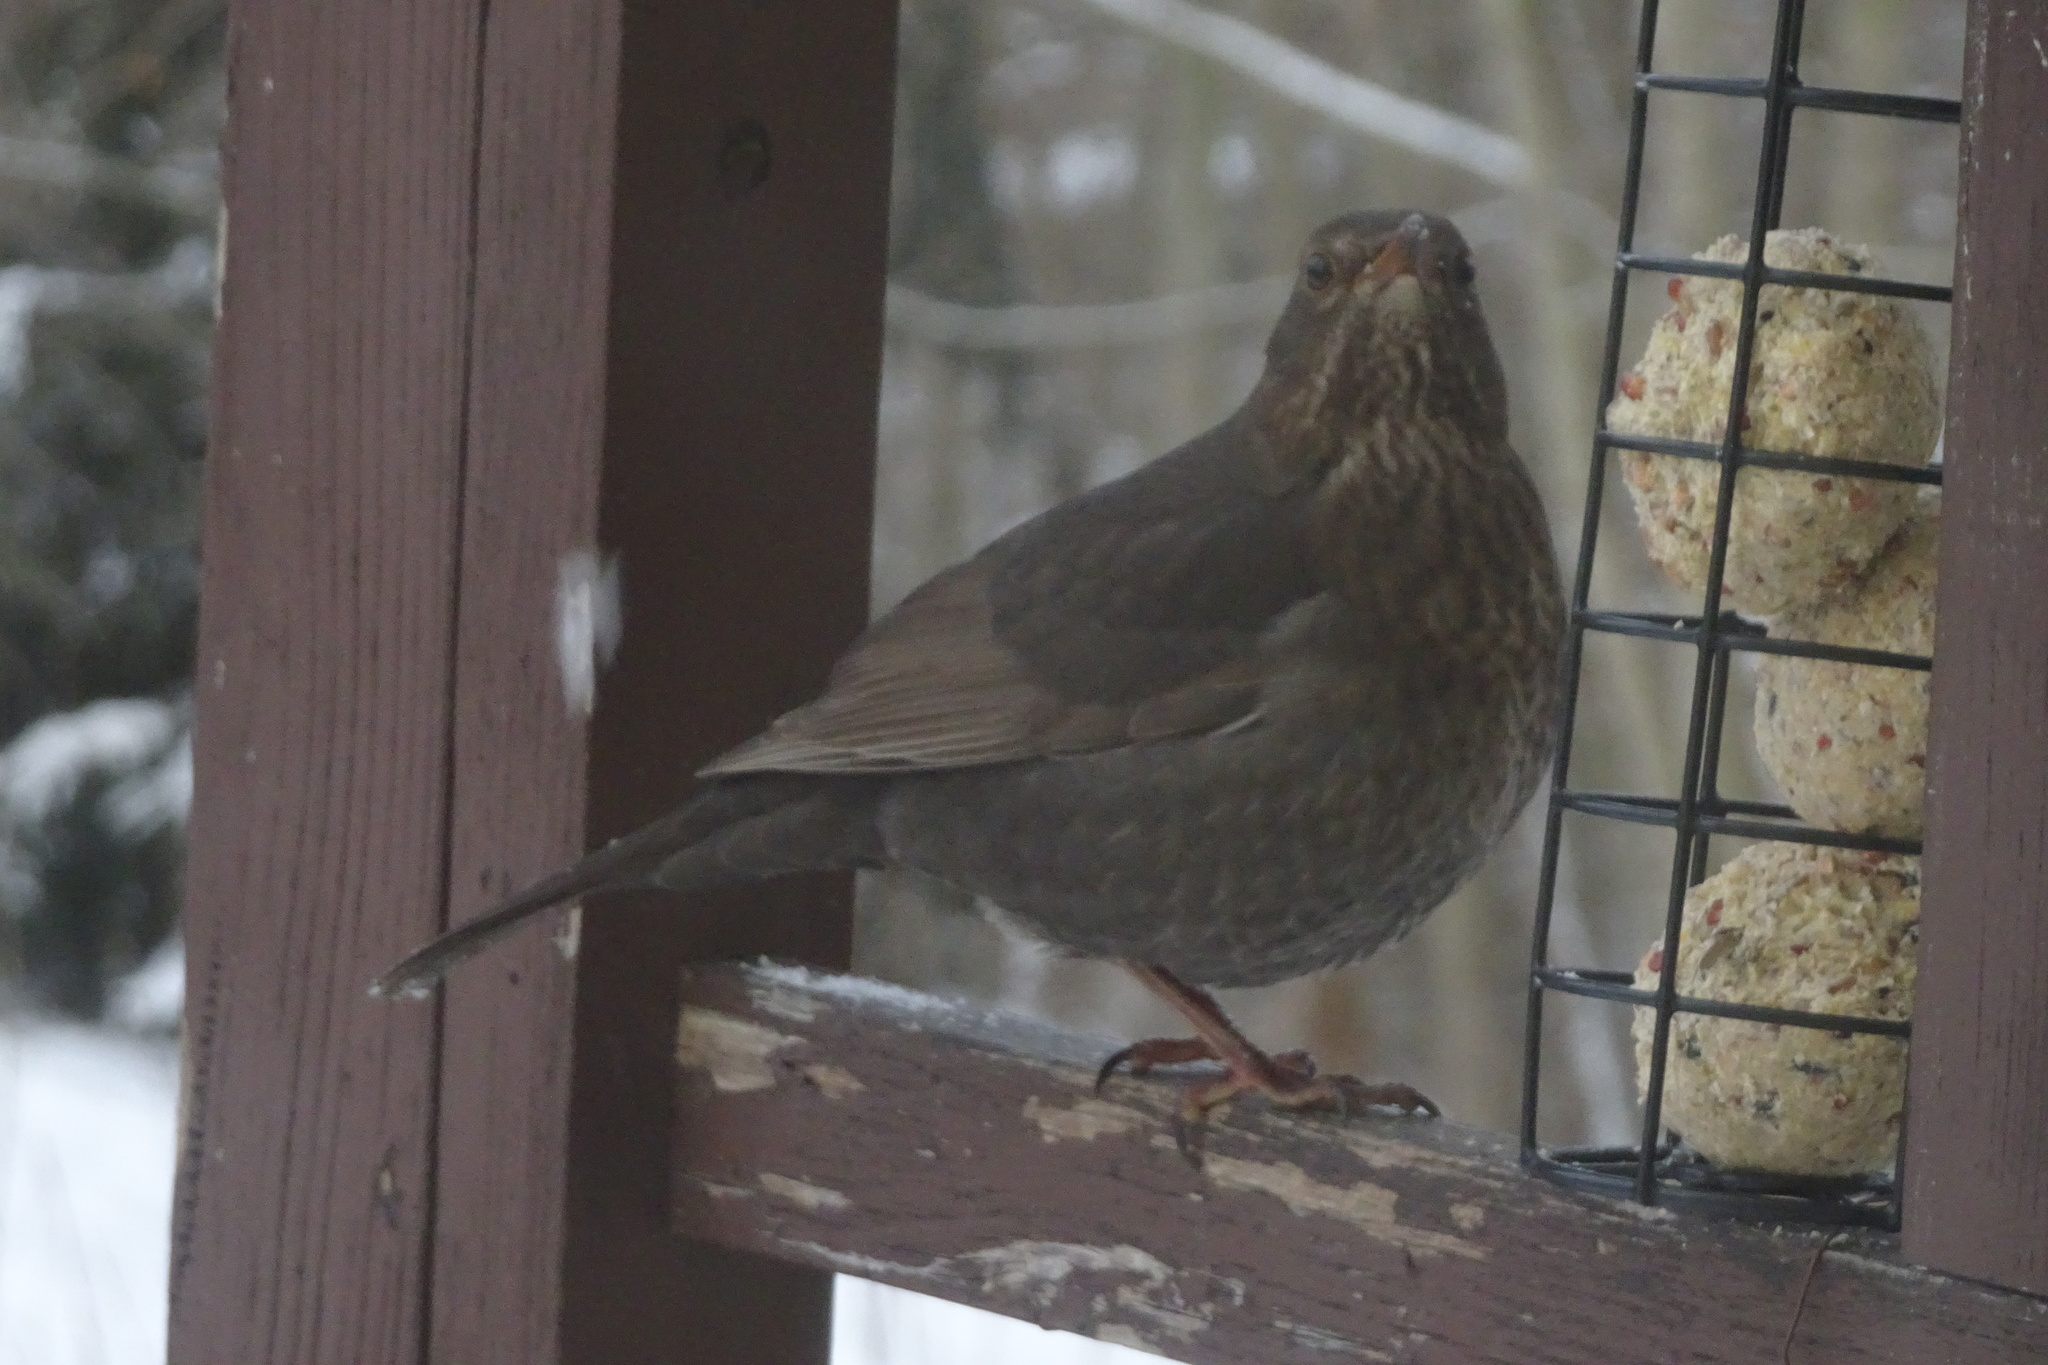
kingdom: Animalia
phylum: Chordata
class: Aves
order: Passeriformes
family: Turdidae
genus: Turdus
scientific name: Turdus merula
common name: Common blackbird
